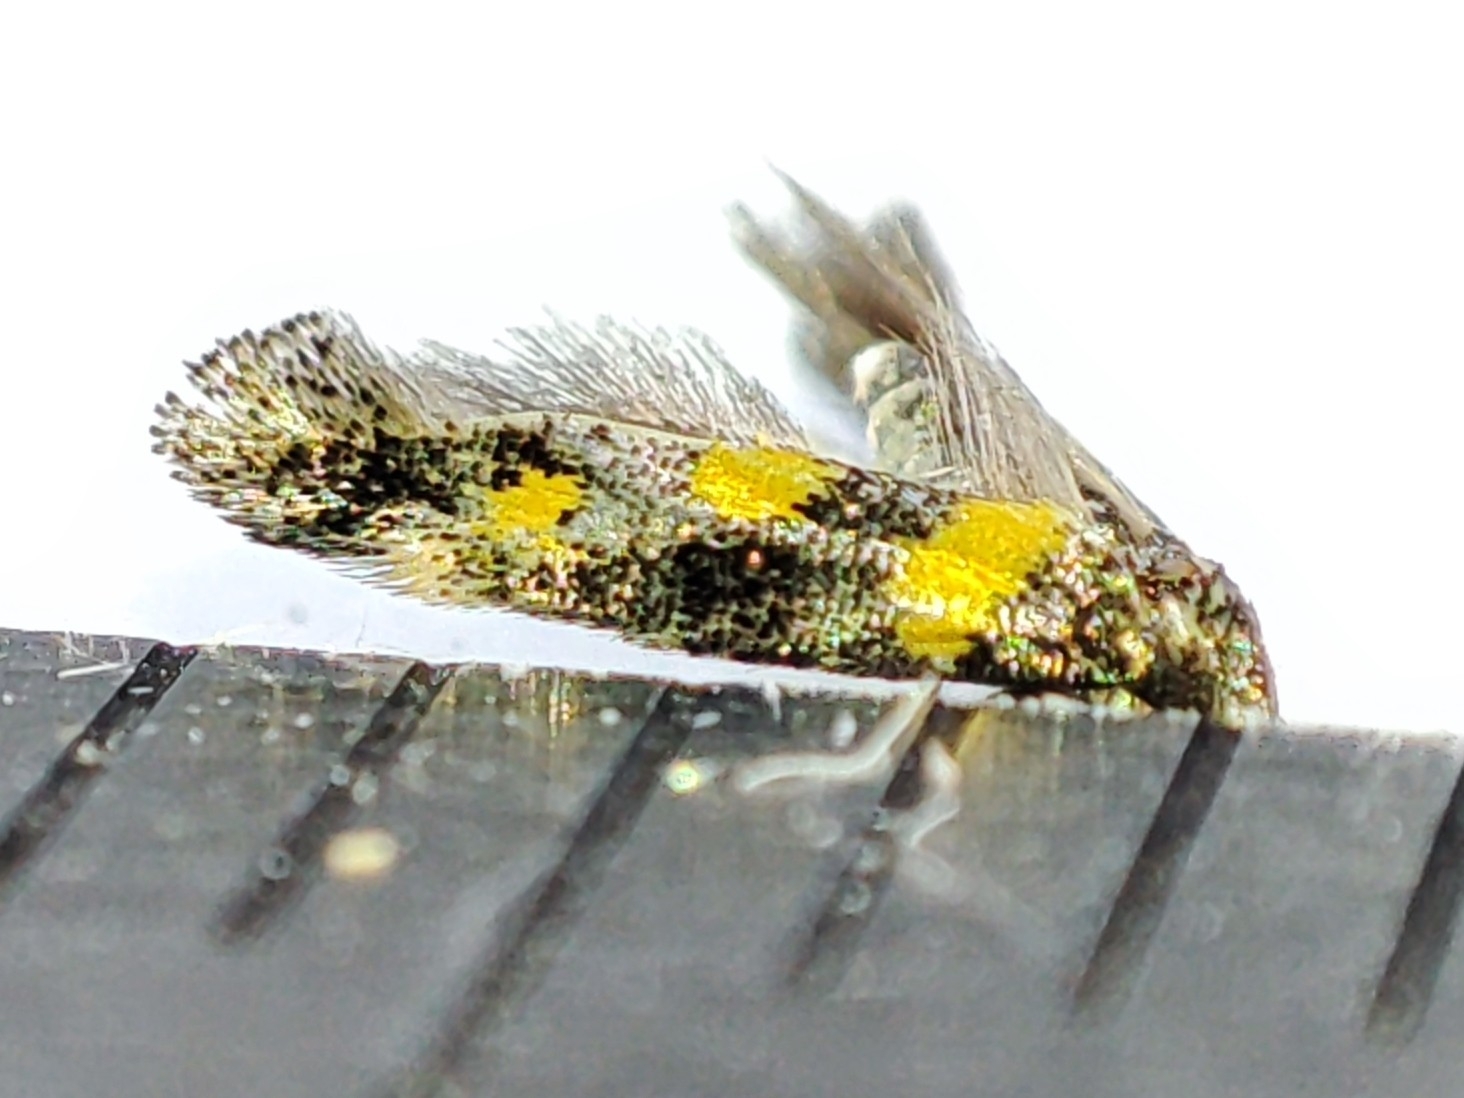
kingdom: Animalia
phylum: Arthropoda
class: Insecta
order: Lepidoptera
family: Gelechiidae
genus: Chrysoesthia
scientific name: Chrysoesthia sexguttella
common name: Moth
